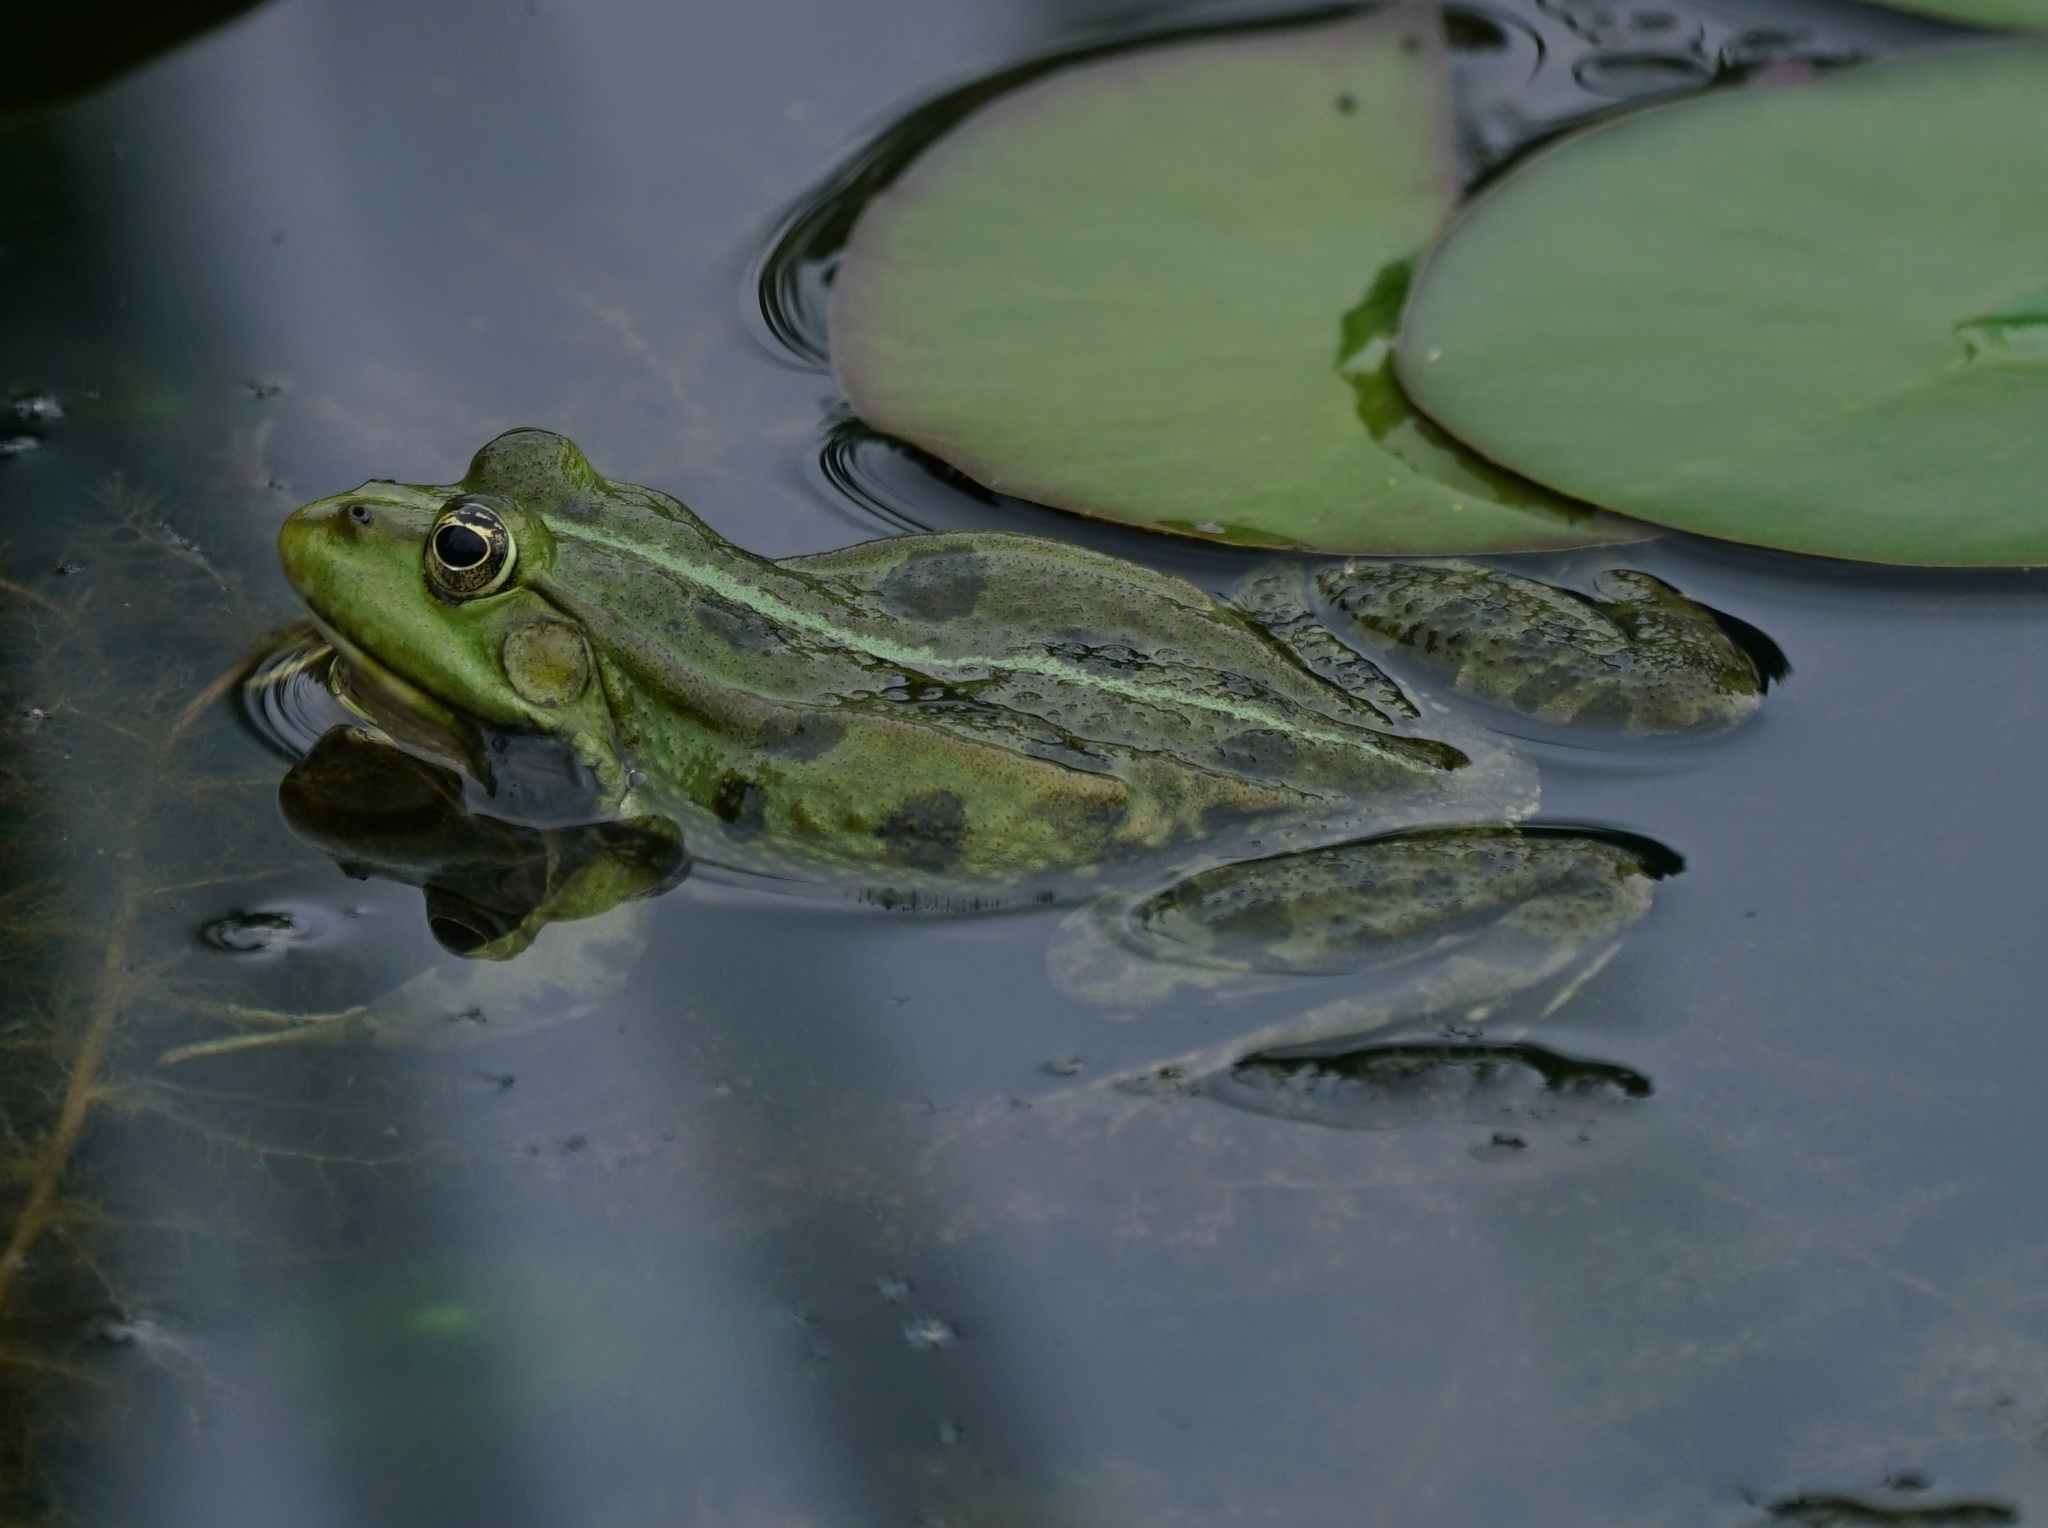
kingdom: Animalia
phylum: Chordata
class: Amphibia
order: Anura
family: Ranidae
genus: Pelophylax
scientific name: Pelophylax
